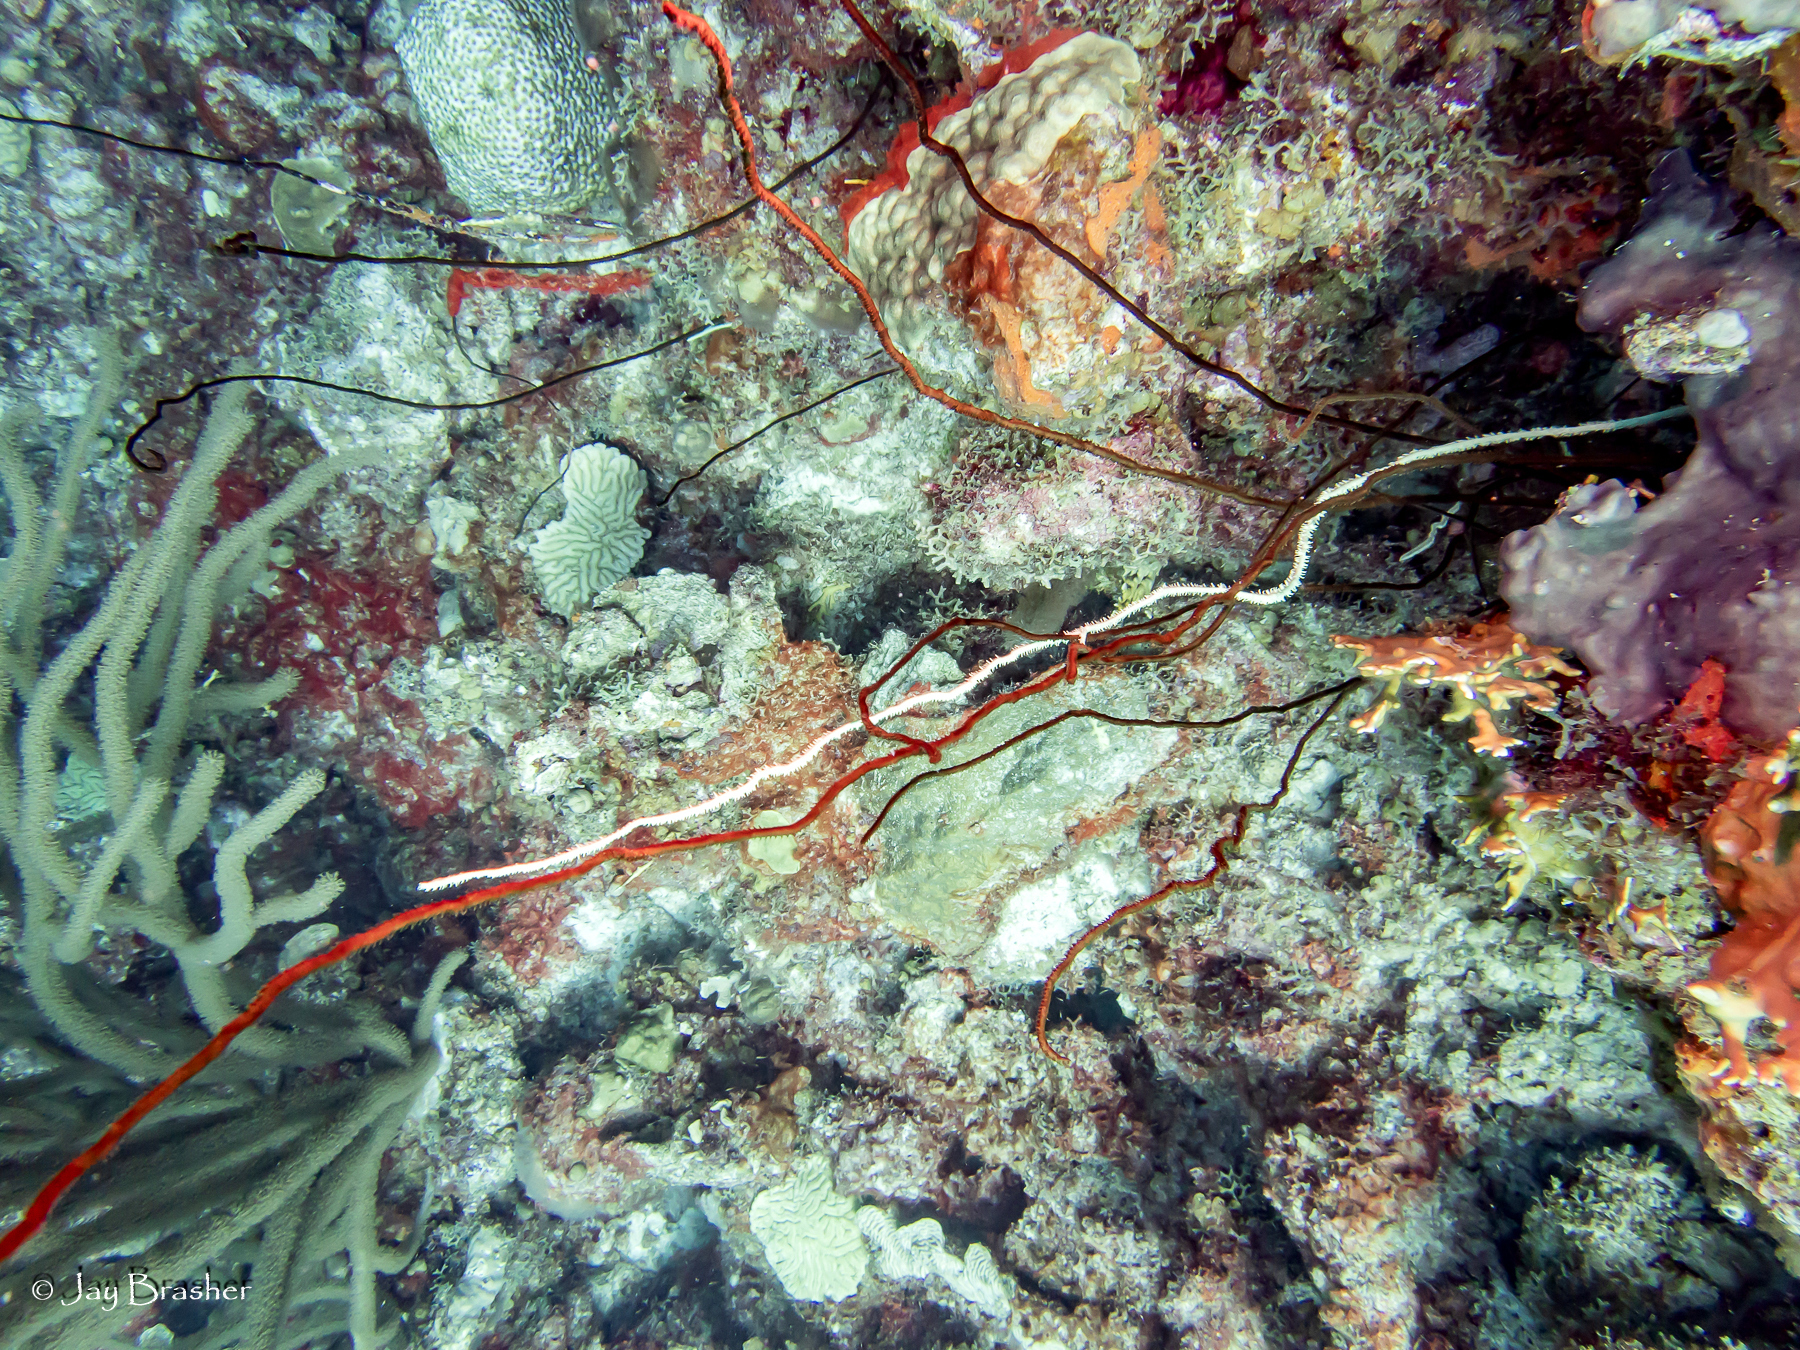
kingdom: Animalia
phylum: Cnidaria
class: Anthozoa
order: Antipatharia
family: Antipathidae
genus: Stichopathes
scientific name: Stichopathes luetkeni
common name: Black wire coral
